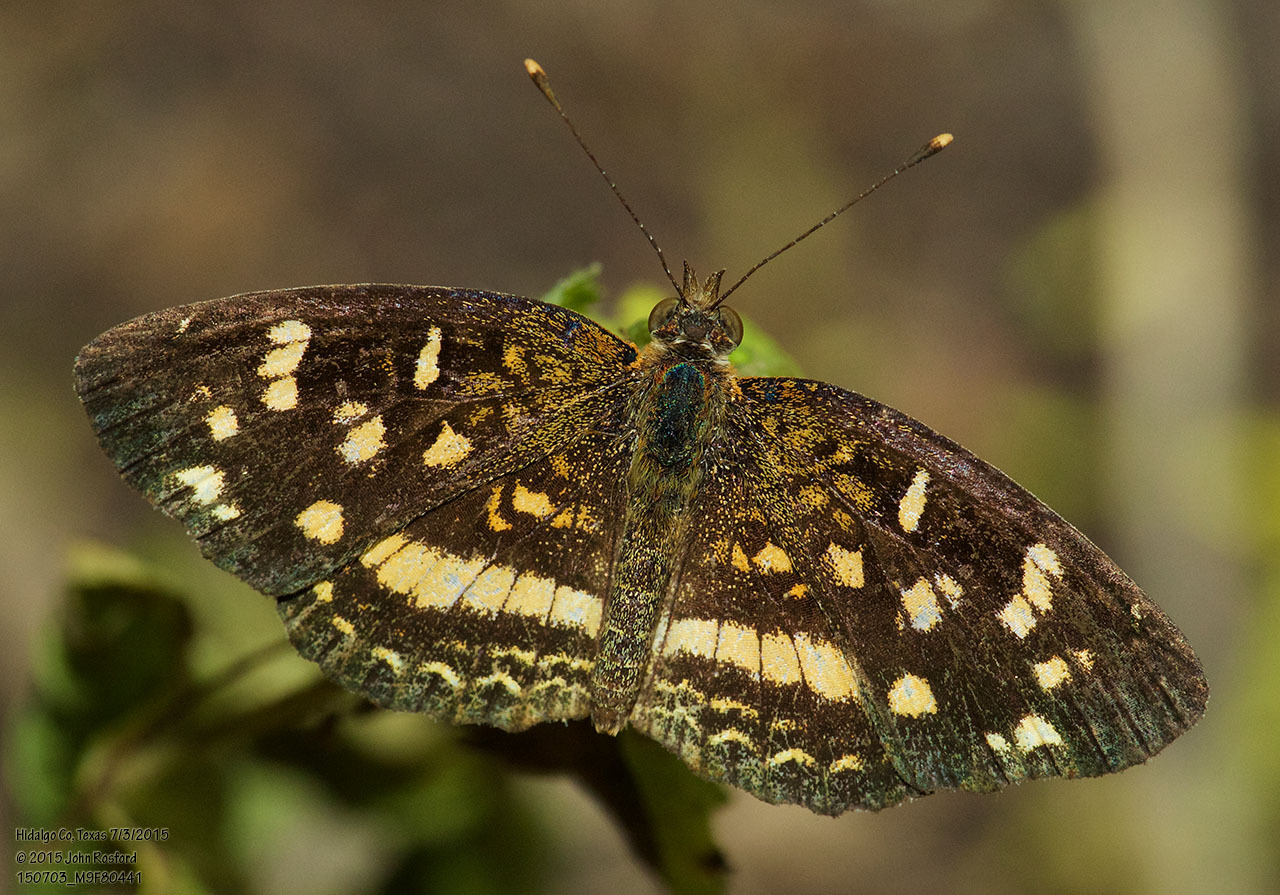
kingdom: Animalia
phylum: Arthropoda
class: Insecta
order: Lepidoptera
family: Nymphalidae
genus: Anthanassa
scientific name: Anthanassa tulcis
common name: Pale-banded crescent
